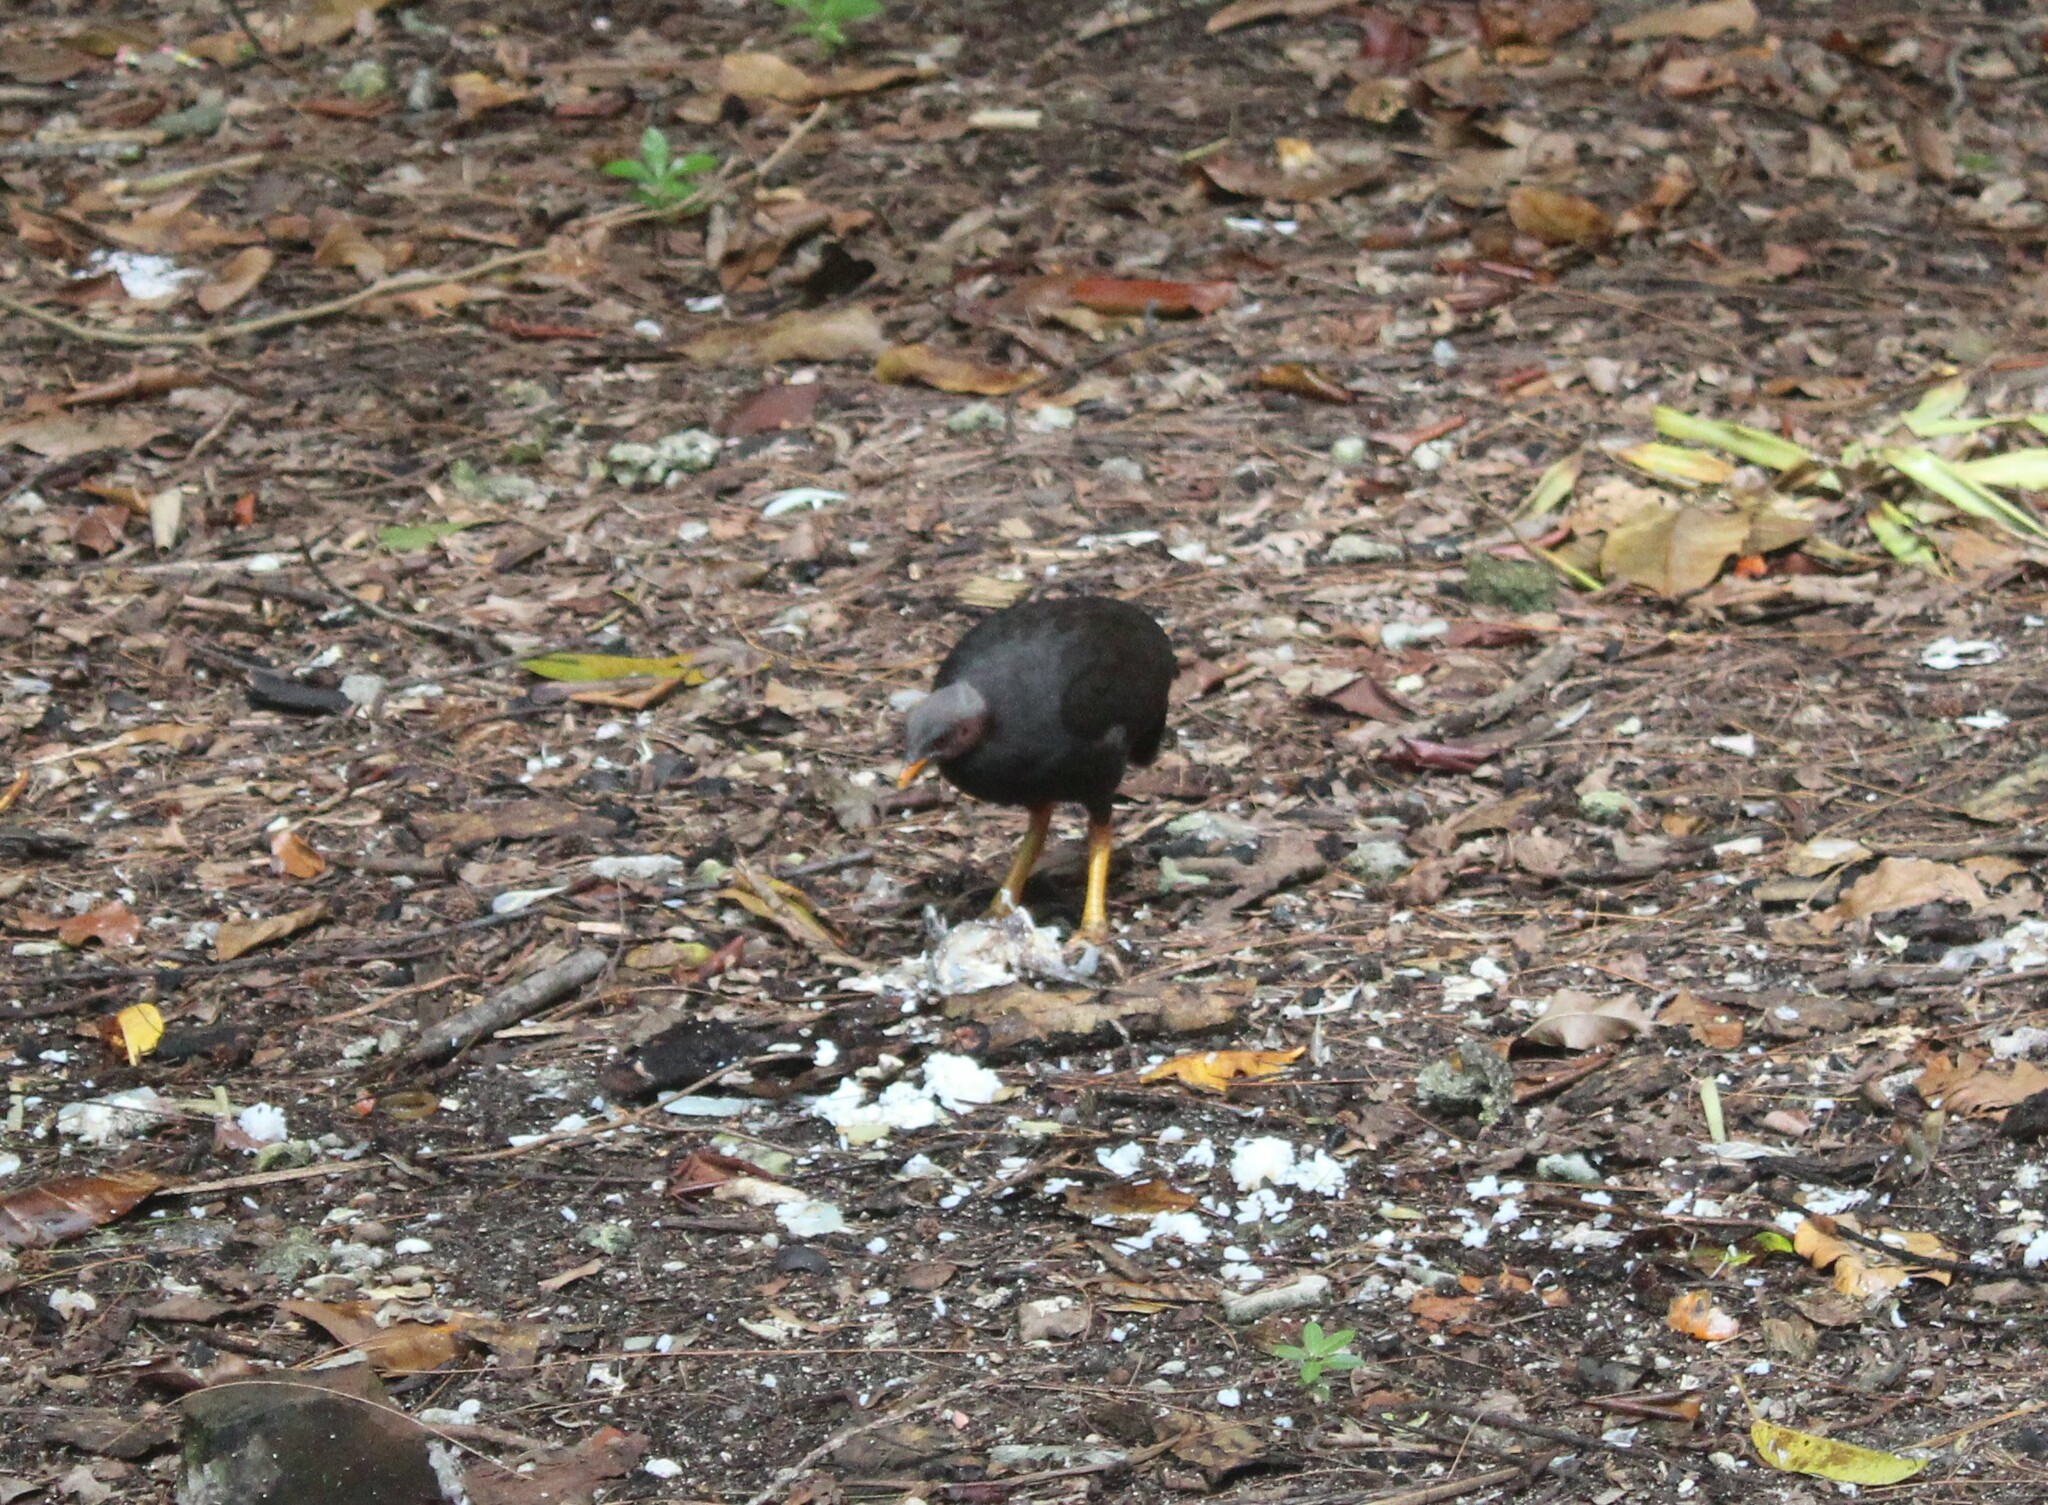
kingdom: Animalia
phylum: Chordata
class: Aves
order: Galliformes
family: Megapodiidae
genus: Megapodius
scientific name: Megapodius laperouse
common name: Micronesian megapode
